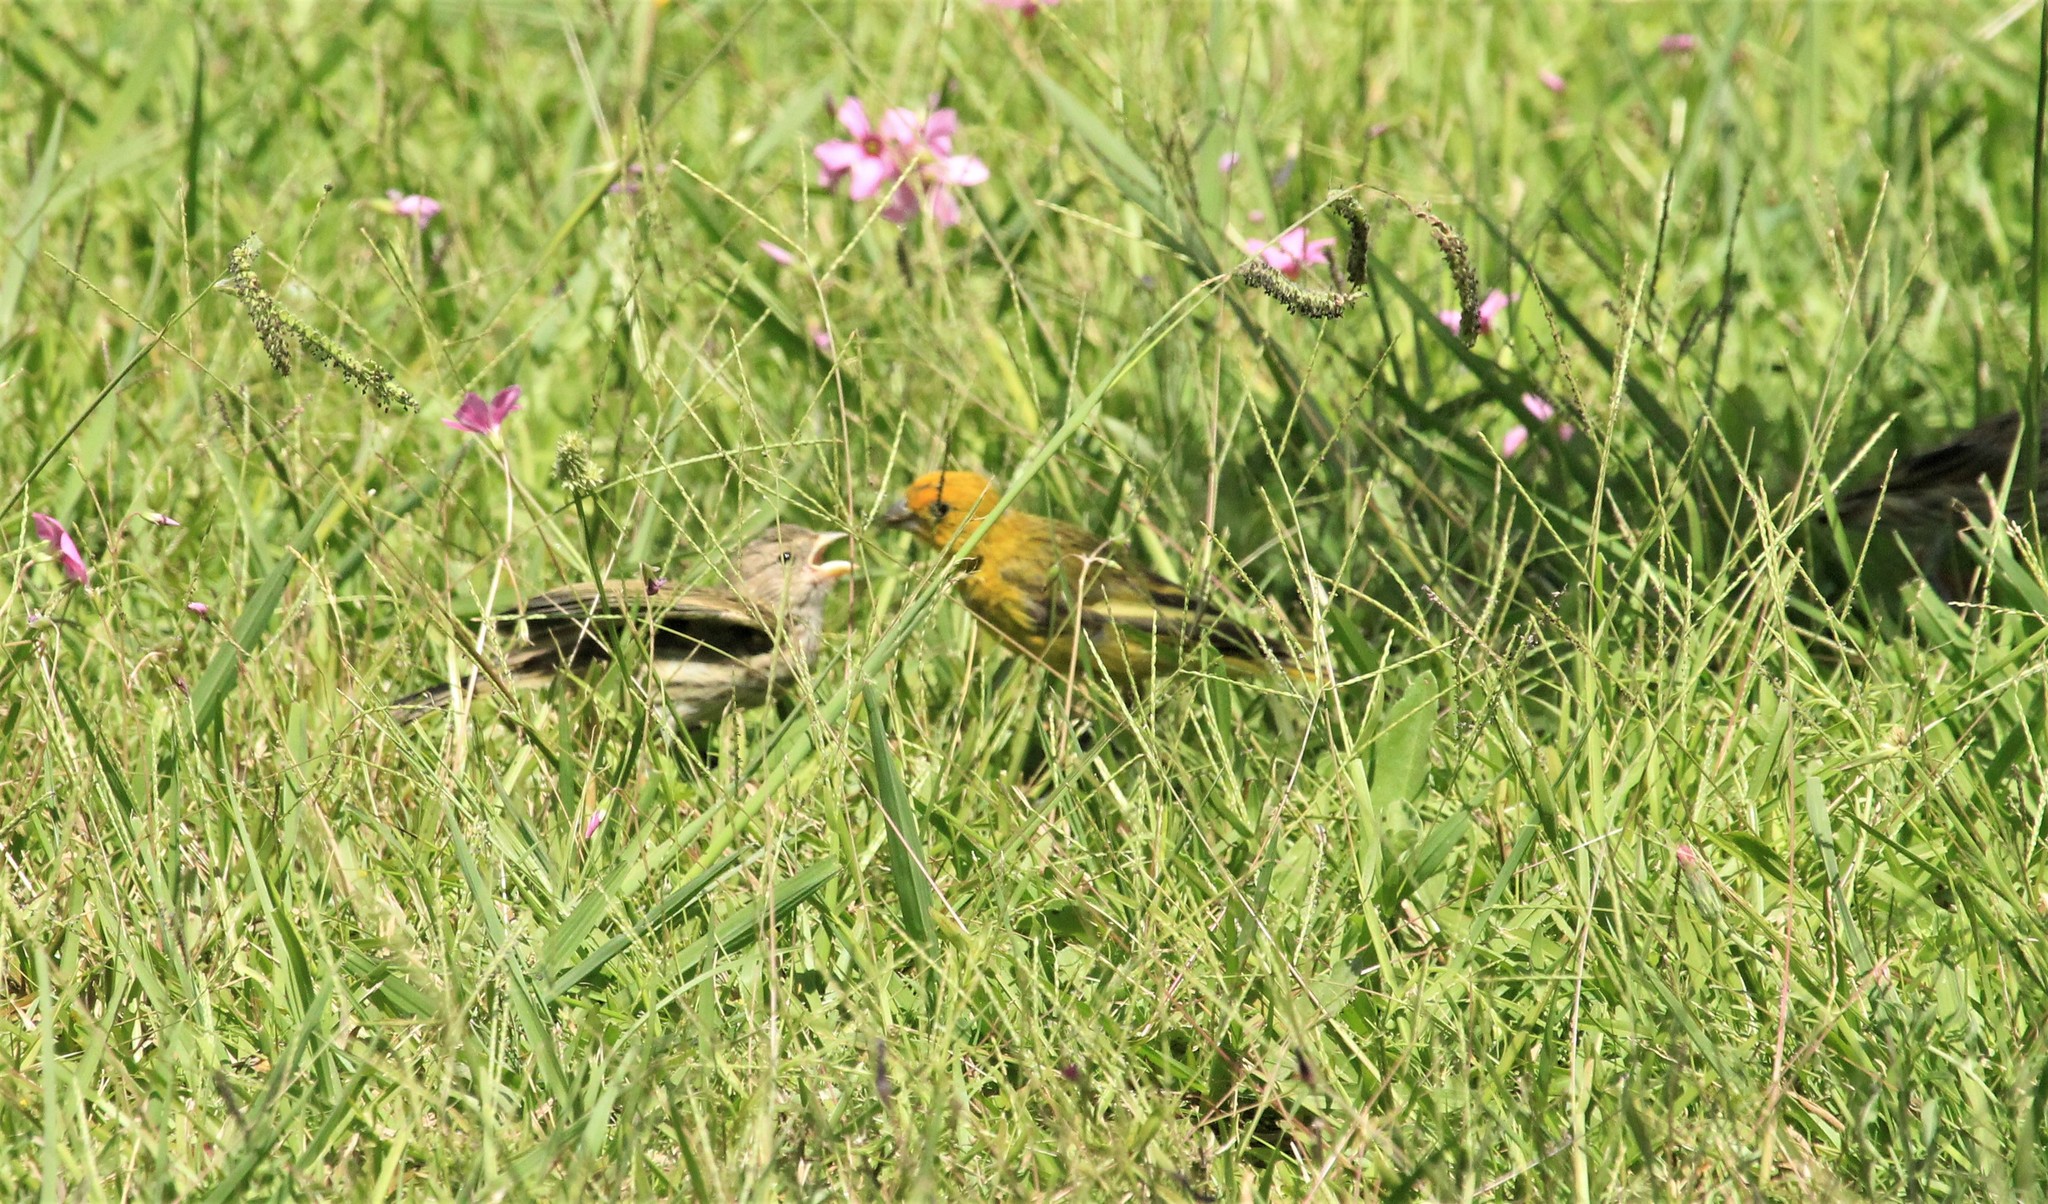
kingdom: Animalia
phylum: Chordata
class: Aves
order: Passeriformes
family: Thraupidae
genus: Sicalis
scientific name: Sicalis flaveola
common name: Saffron finch
